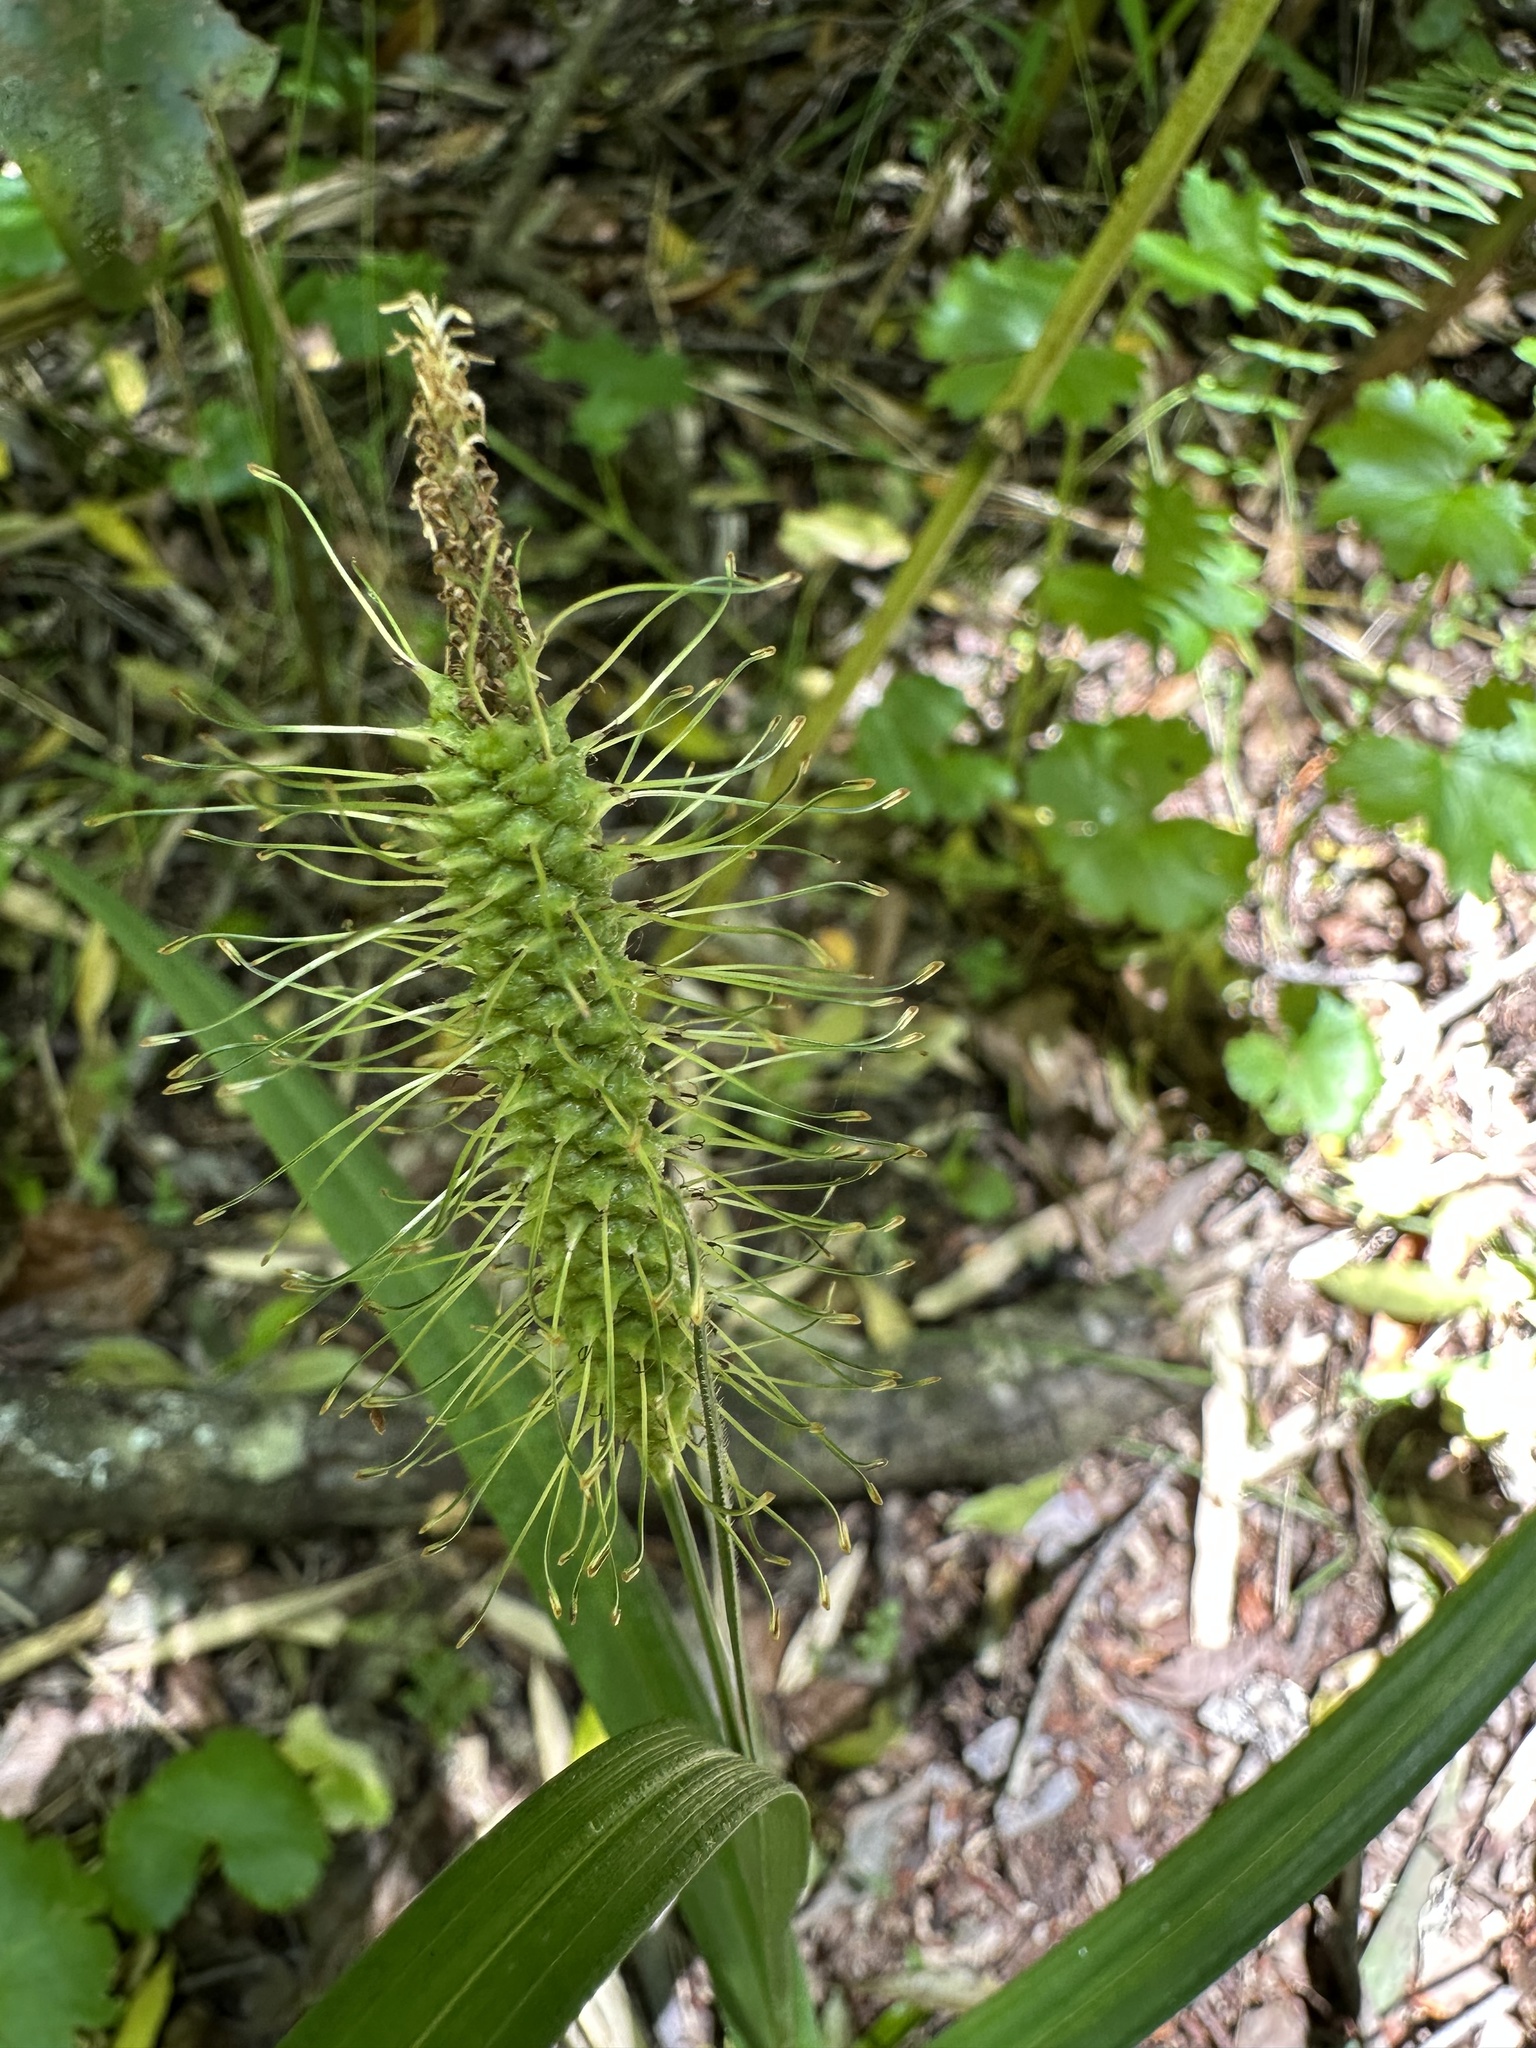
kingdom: Plantae
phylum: Tracheophyta
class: Liliopsida
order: Poales
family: Cyperaceae
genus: Carex
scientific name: Carex erinacea
